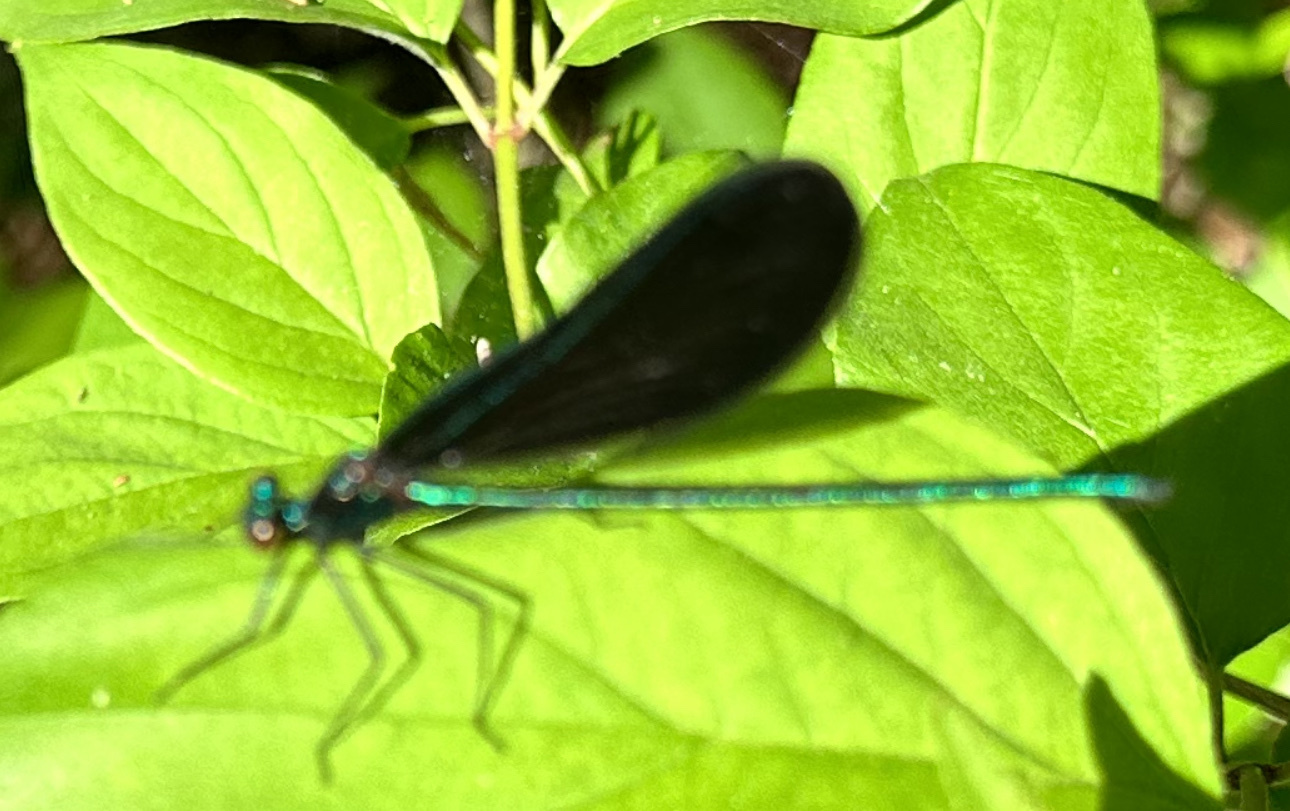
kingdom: Animalia
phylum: Arthropoda
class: Insecta
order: Odonata
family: Calopterygidae
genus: Calopteryx
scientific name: Calopteryx maculata
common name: Ebony jewelwing
